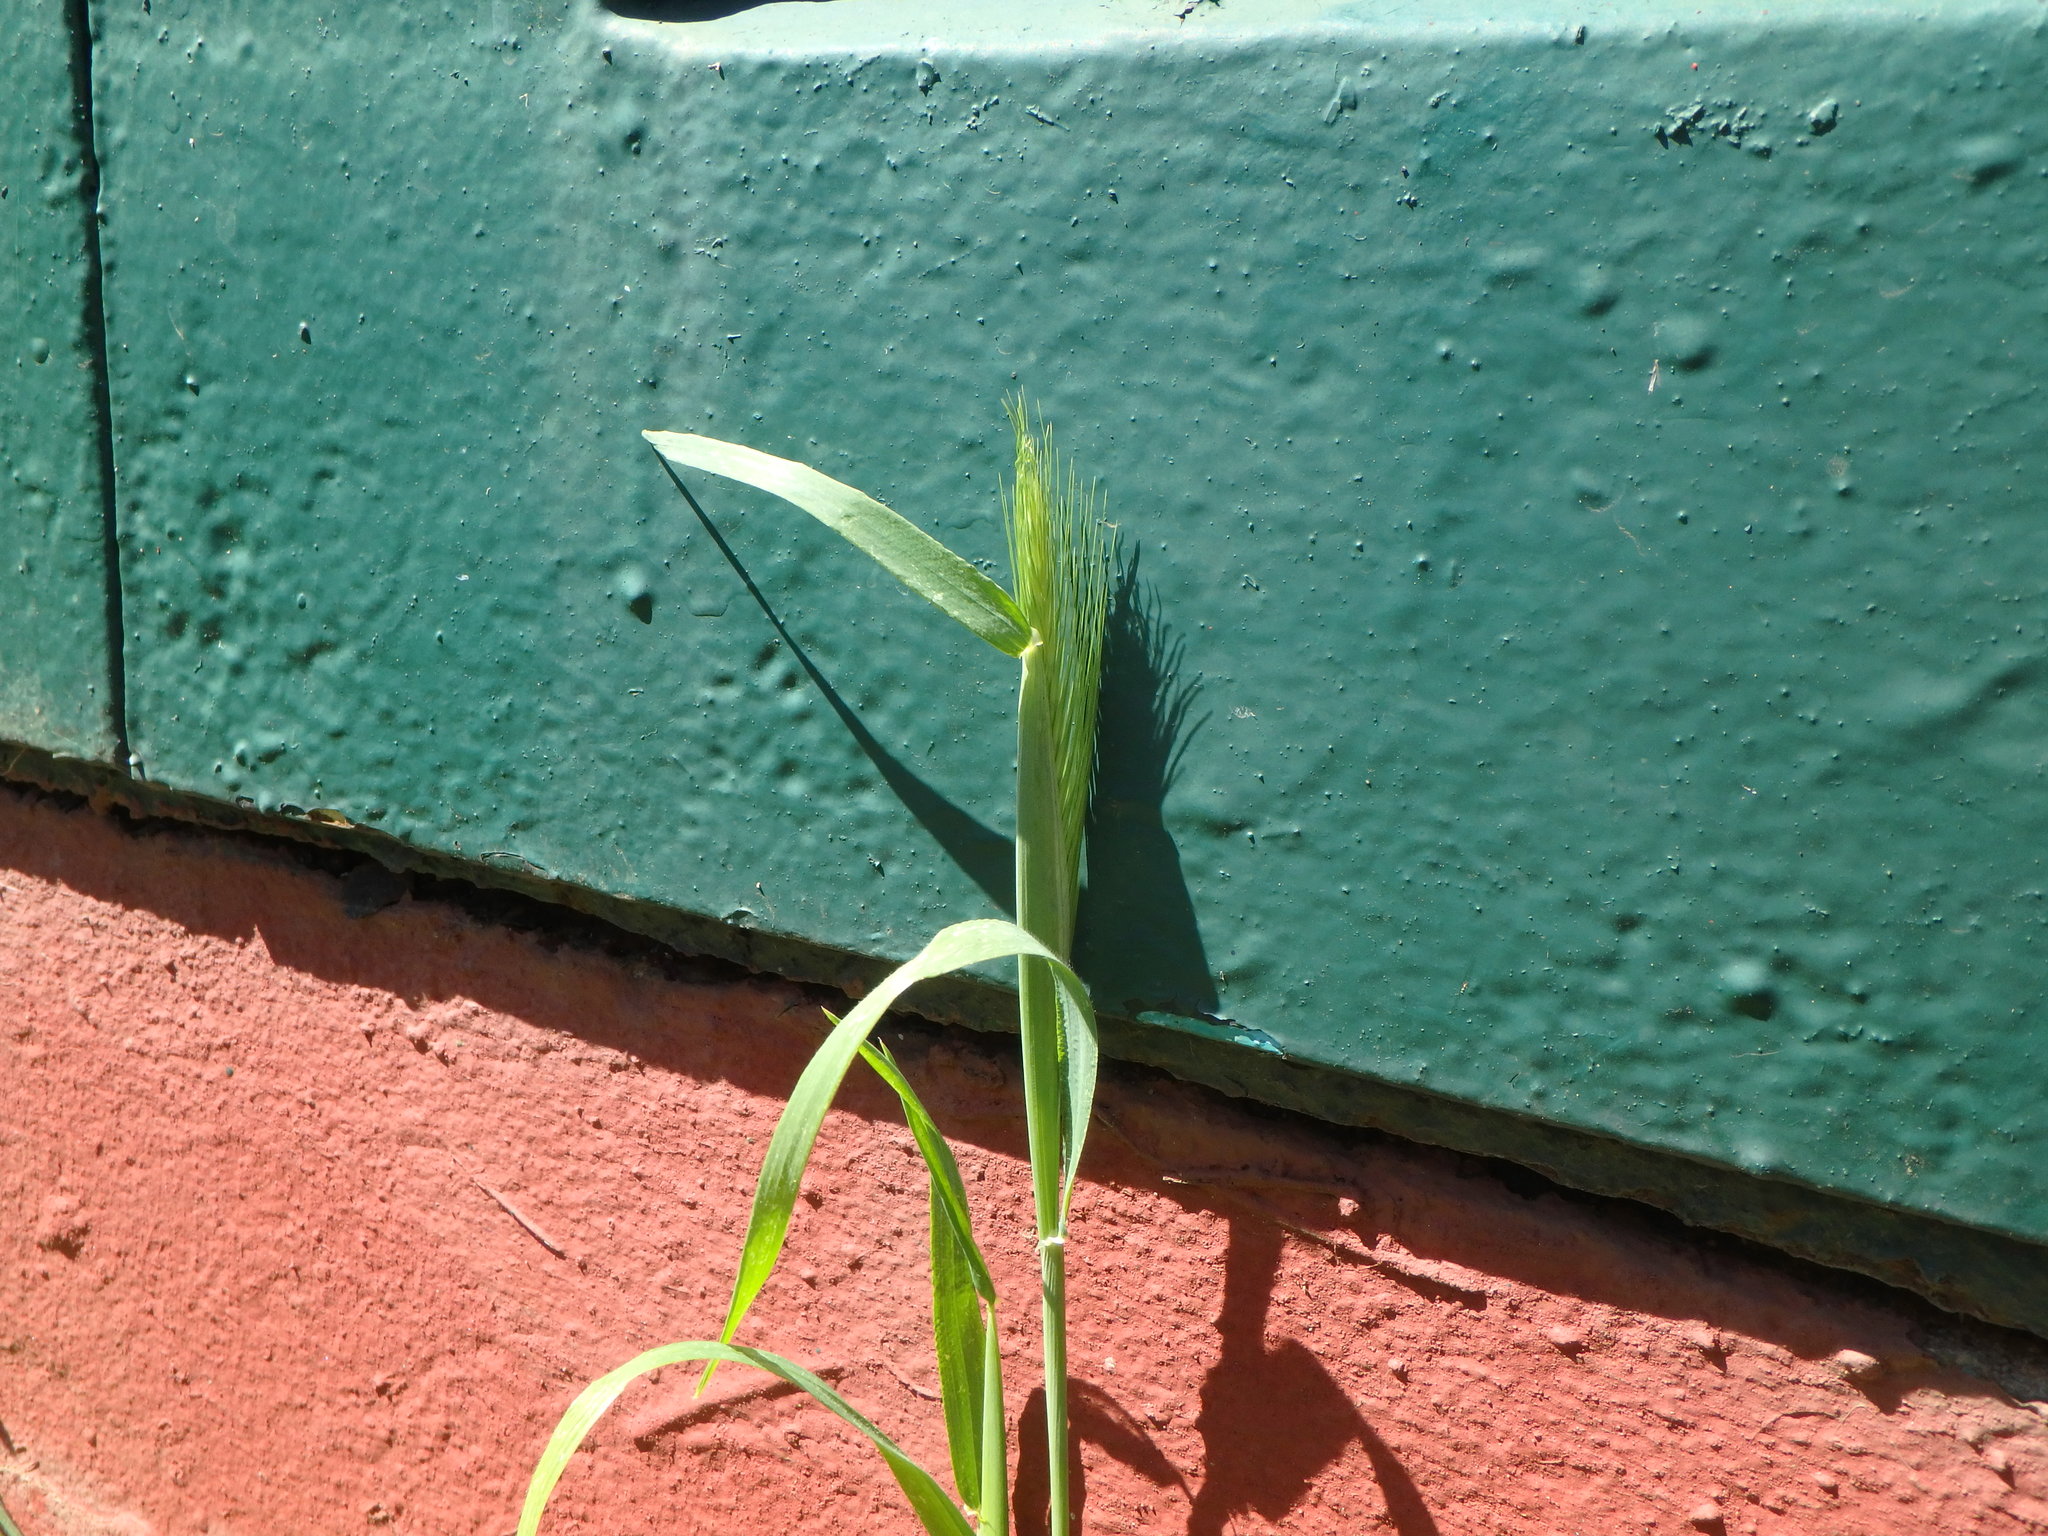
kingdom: Plantae
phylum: Tracheophyta
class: Liliopsida
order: Poales
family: Poaceae
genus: Hordeum
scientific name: Hordeum murinum
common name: Wall barley
